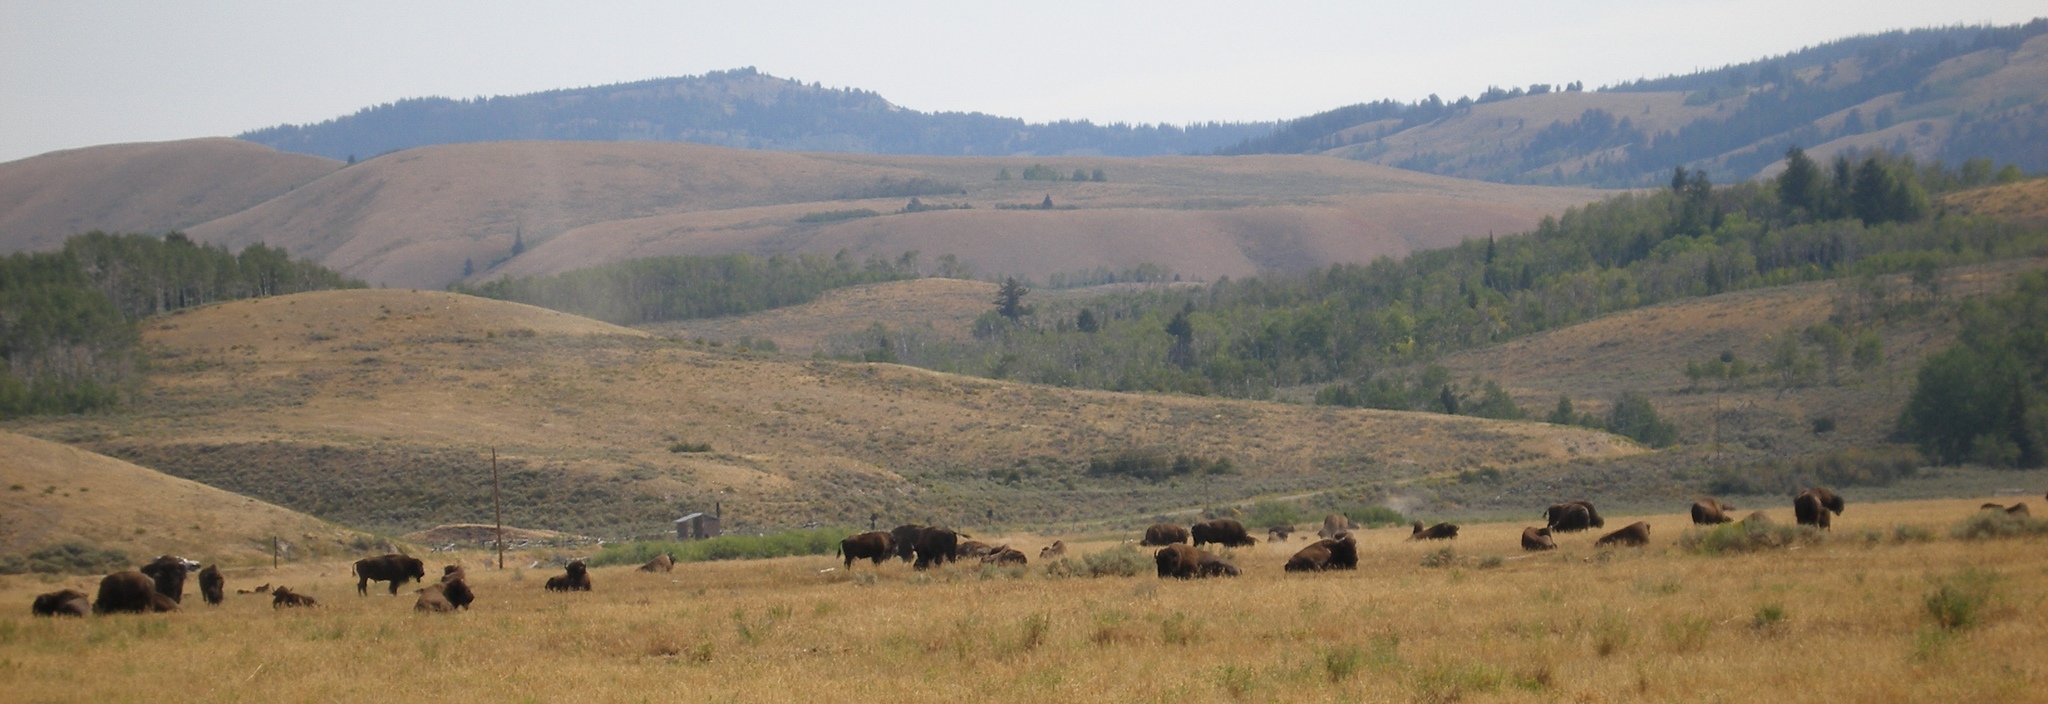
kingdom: Animalia
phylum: Chordata
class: Mammalia
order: Artiodactyla
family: Bovidae
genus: Bison
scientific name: Bison bison
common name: American bison
